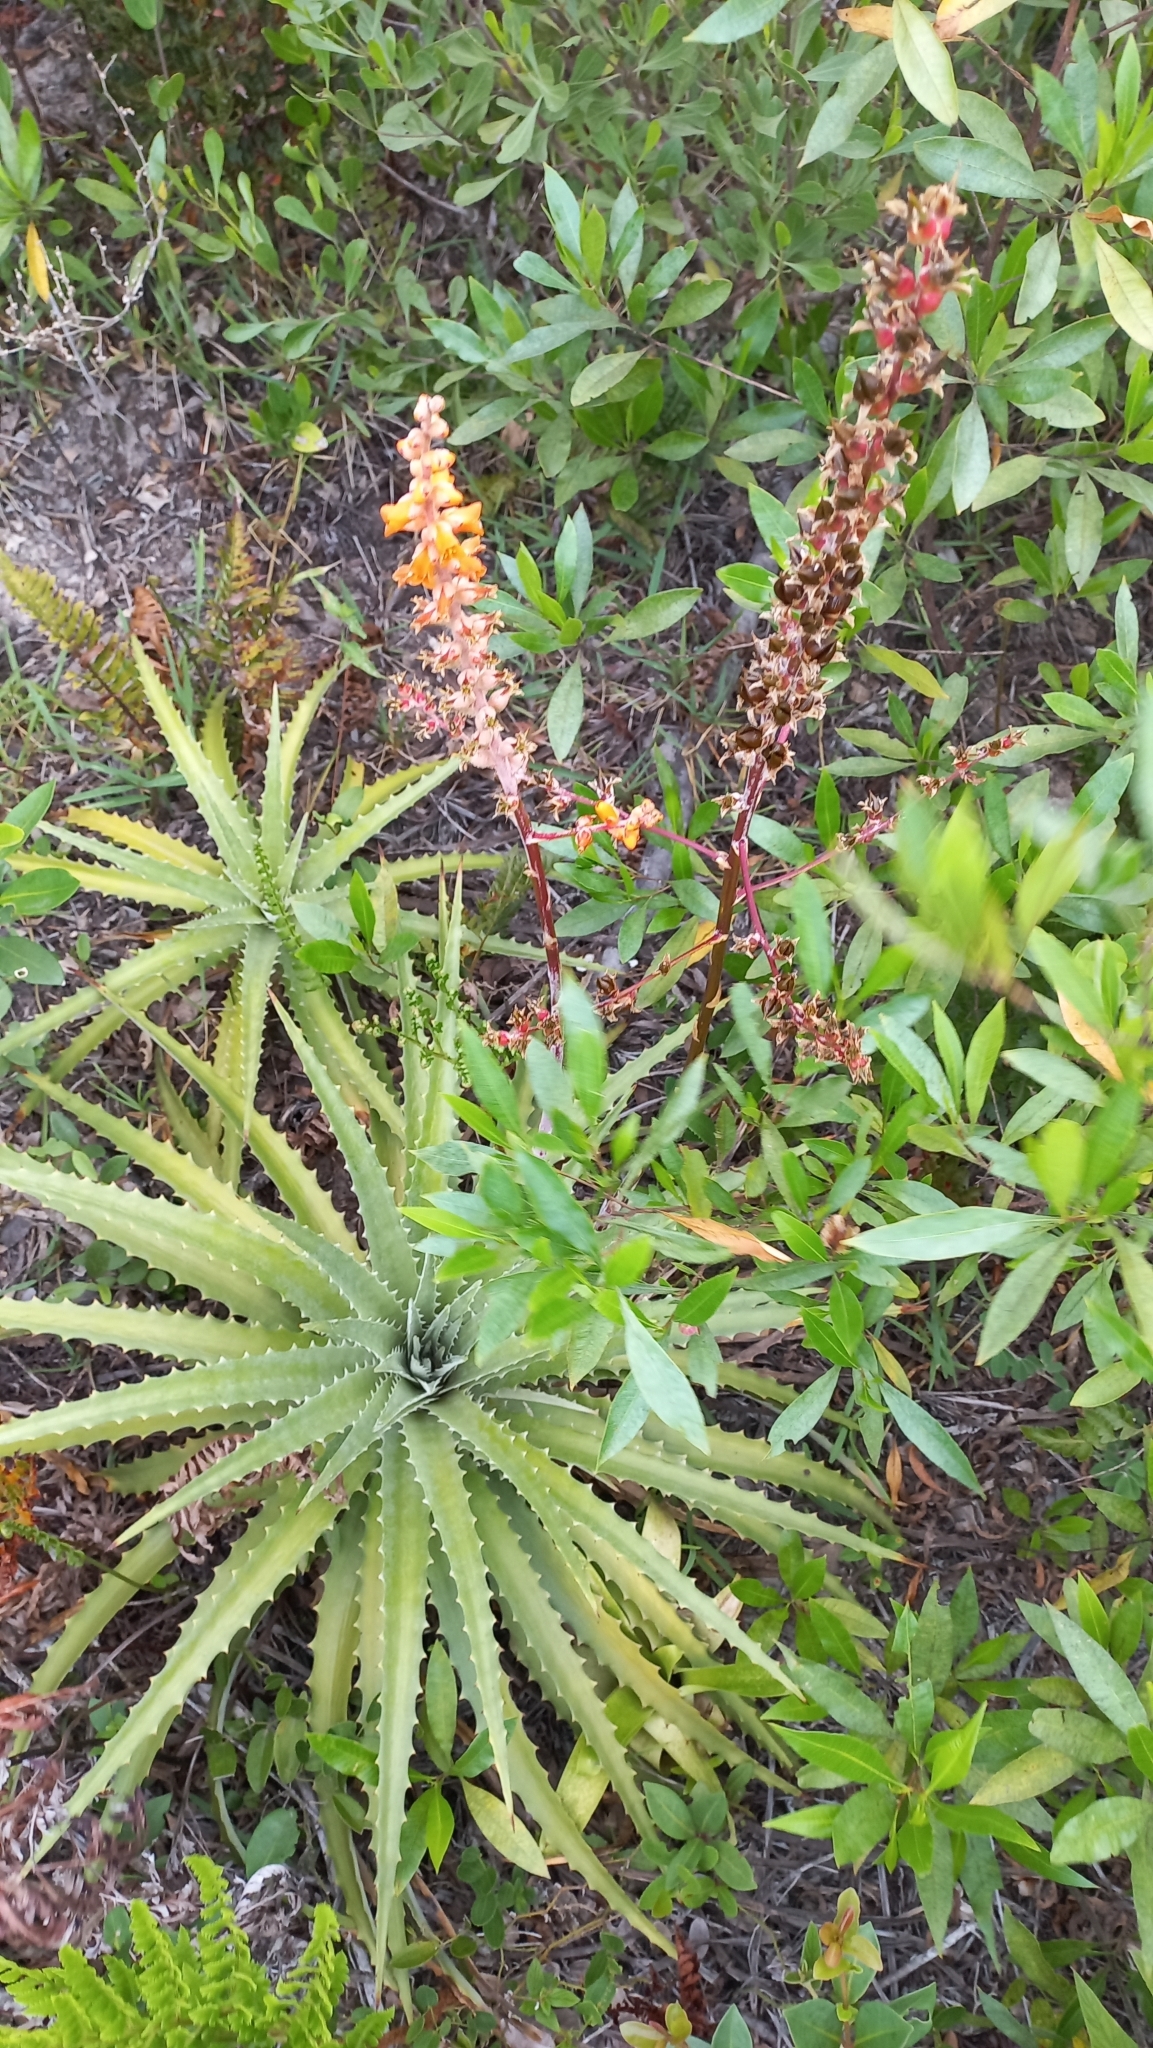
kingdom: Plantae
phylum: Tracheophyta
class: Liliopsida
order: Poales
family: Bromeliaceae
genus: Dyckia
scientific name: Dyckia encholirioides
